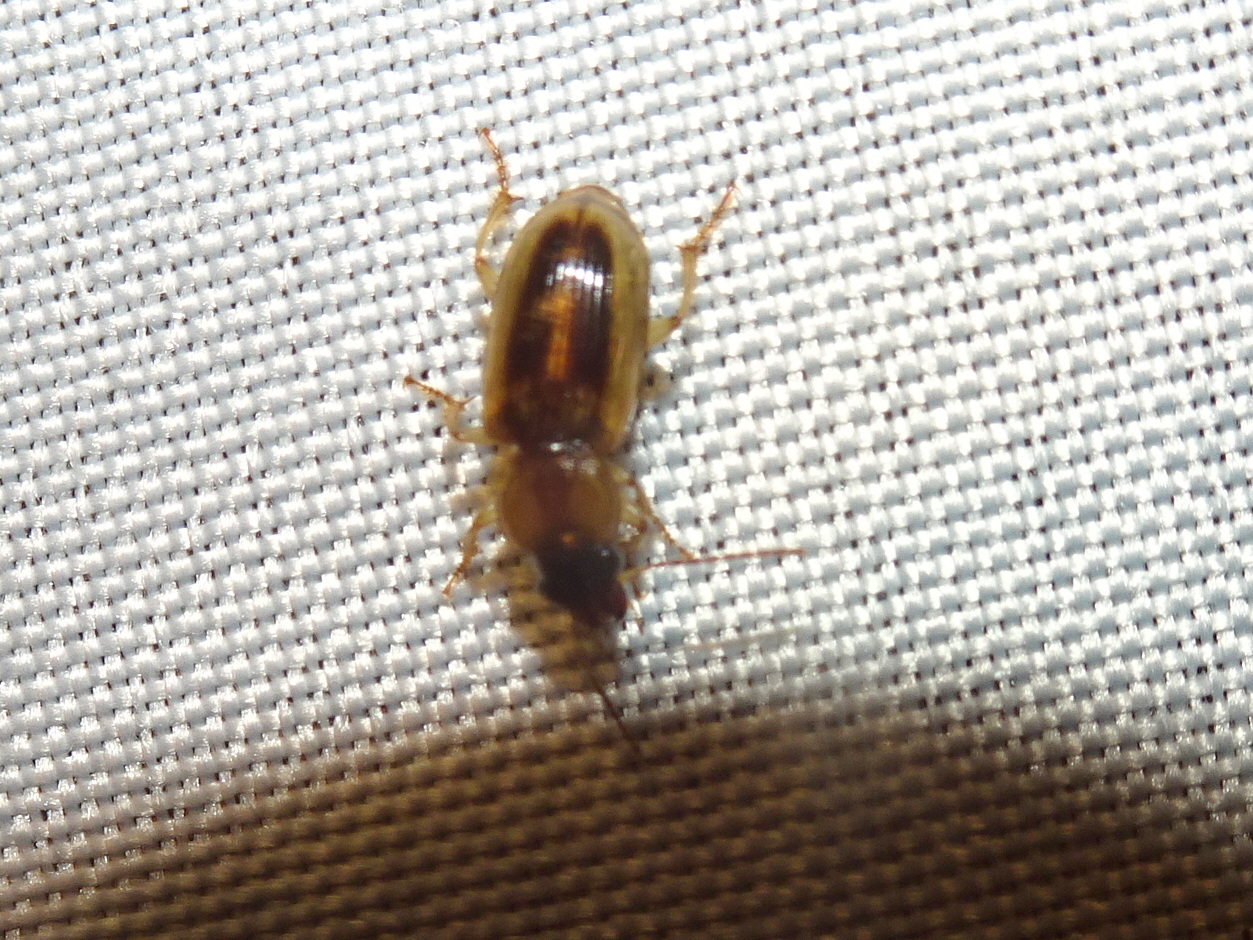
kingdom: Animalia
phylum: Arthropoda
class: Insecta
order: Coleoptera
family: Carabidae
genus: Stenolophus
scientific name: Stenolophus lecontei
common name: Leconte's seedcorn beetle
